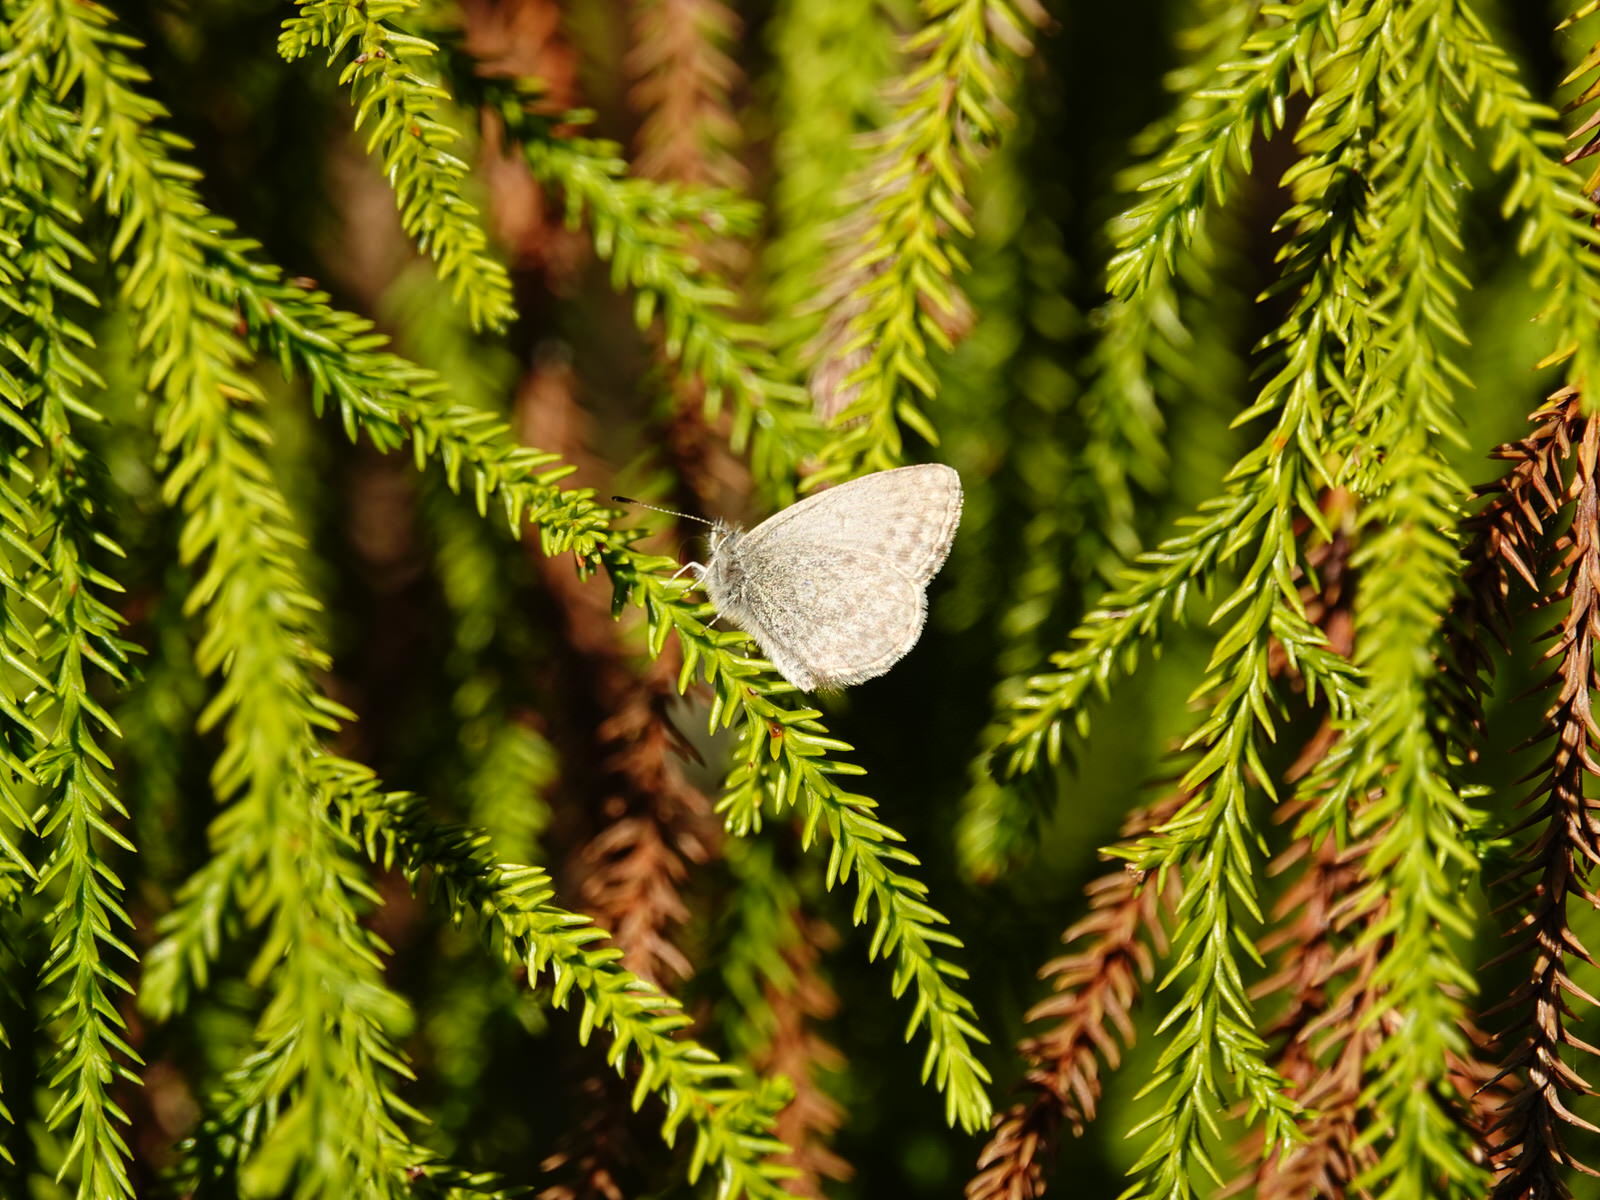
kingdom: Animalia
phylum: Arthropoda
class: Insecta
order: Lepidoptera
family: Lycaenidae
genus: Zizina
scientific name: Zizina labradus
